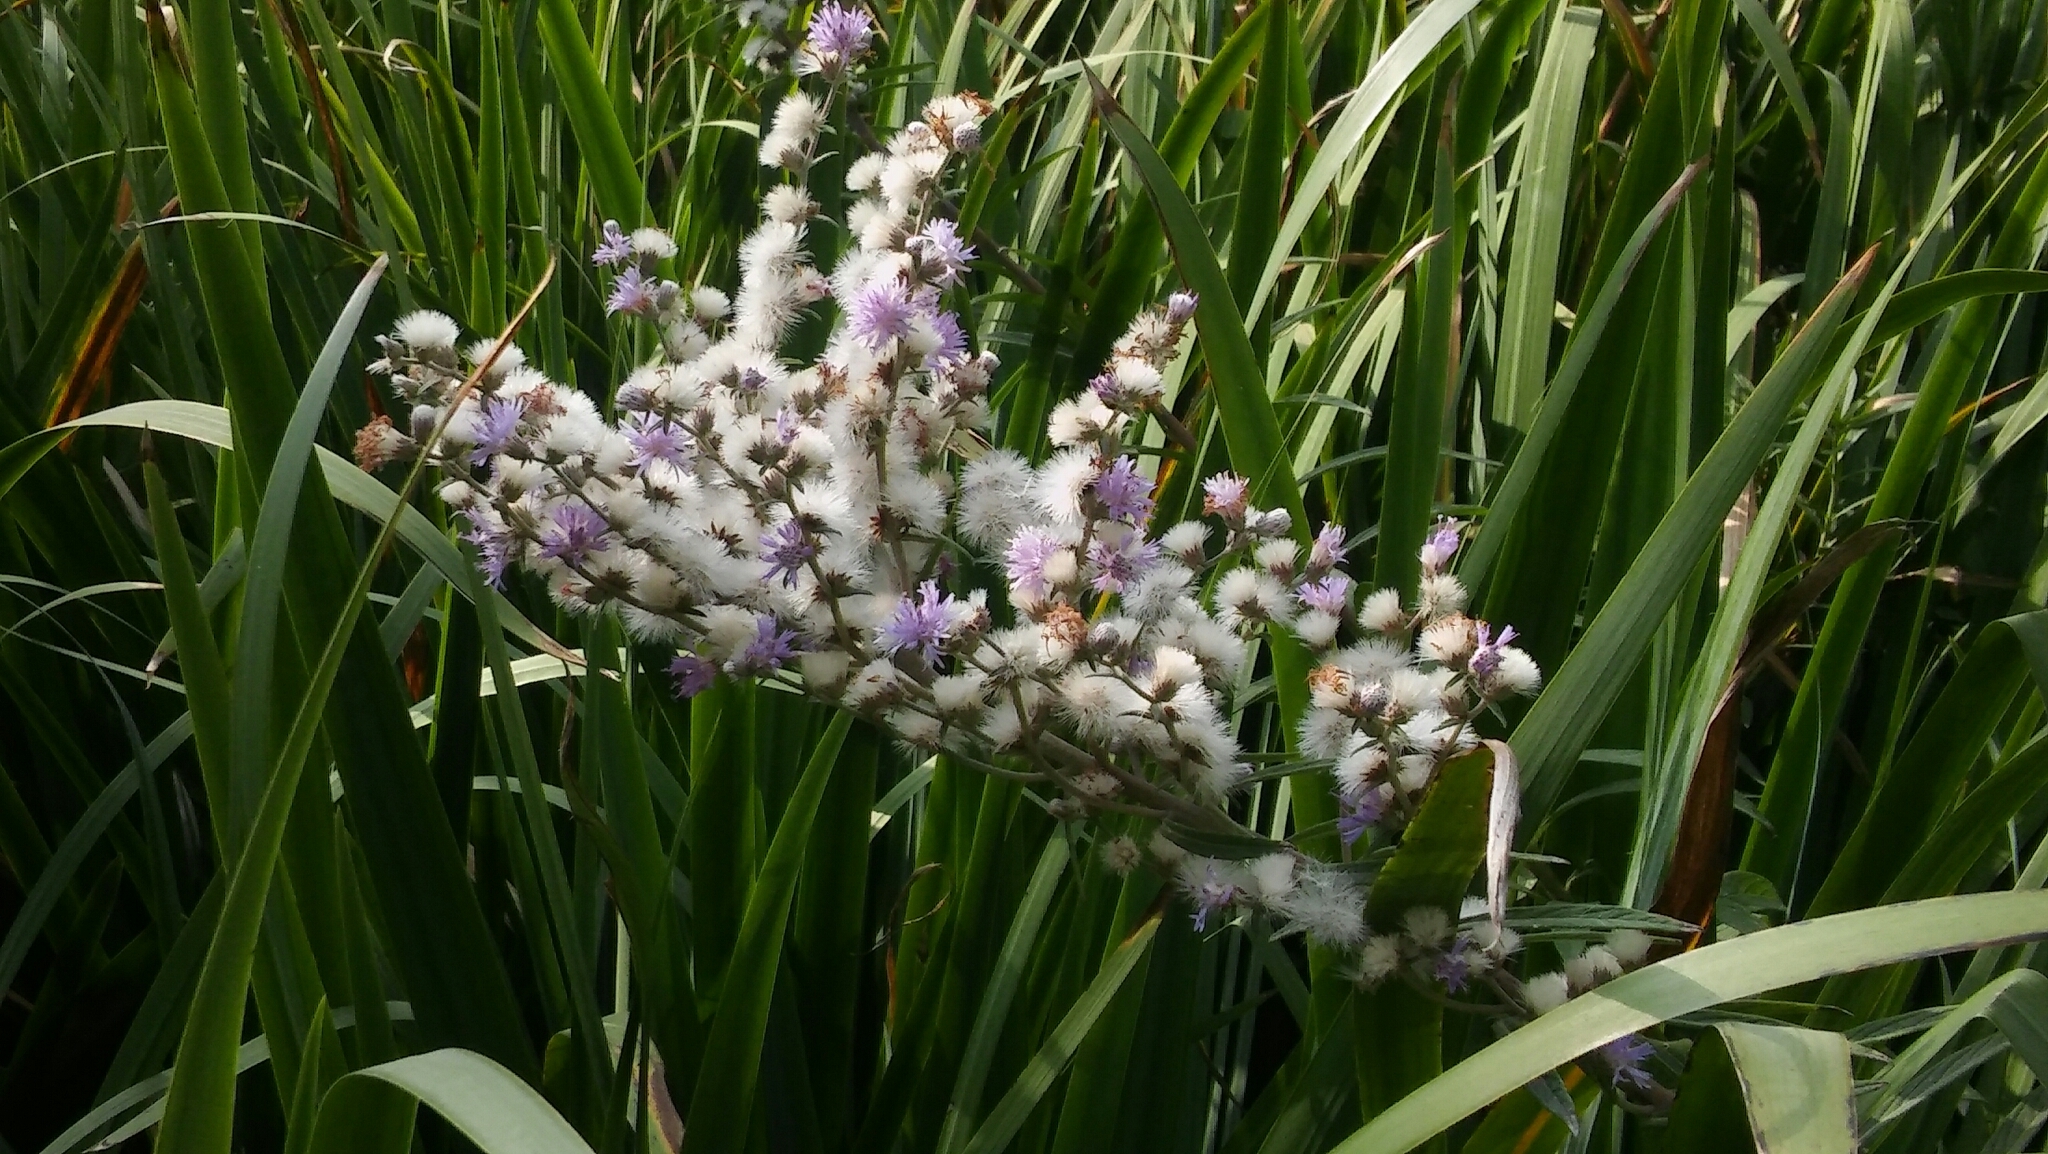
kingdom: Plantae
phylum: Tracheophyta
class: Magnoliopsida
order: Asterales
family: Asteraceae
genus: Vernonia
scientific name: Vernonia incana
